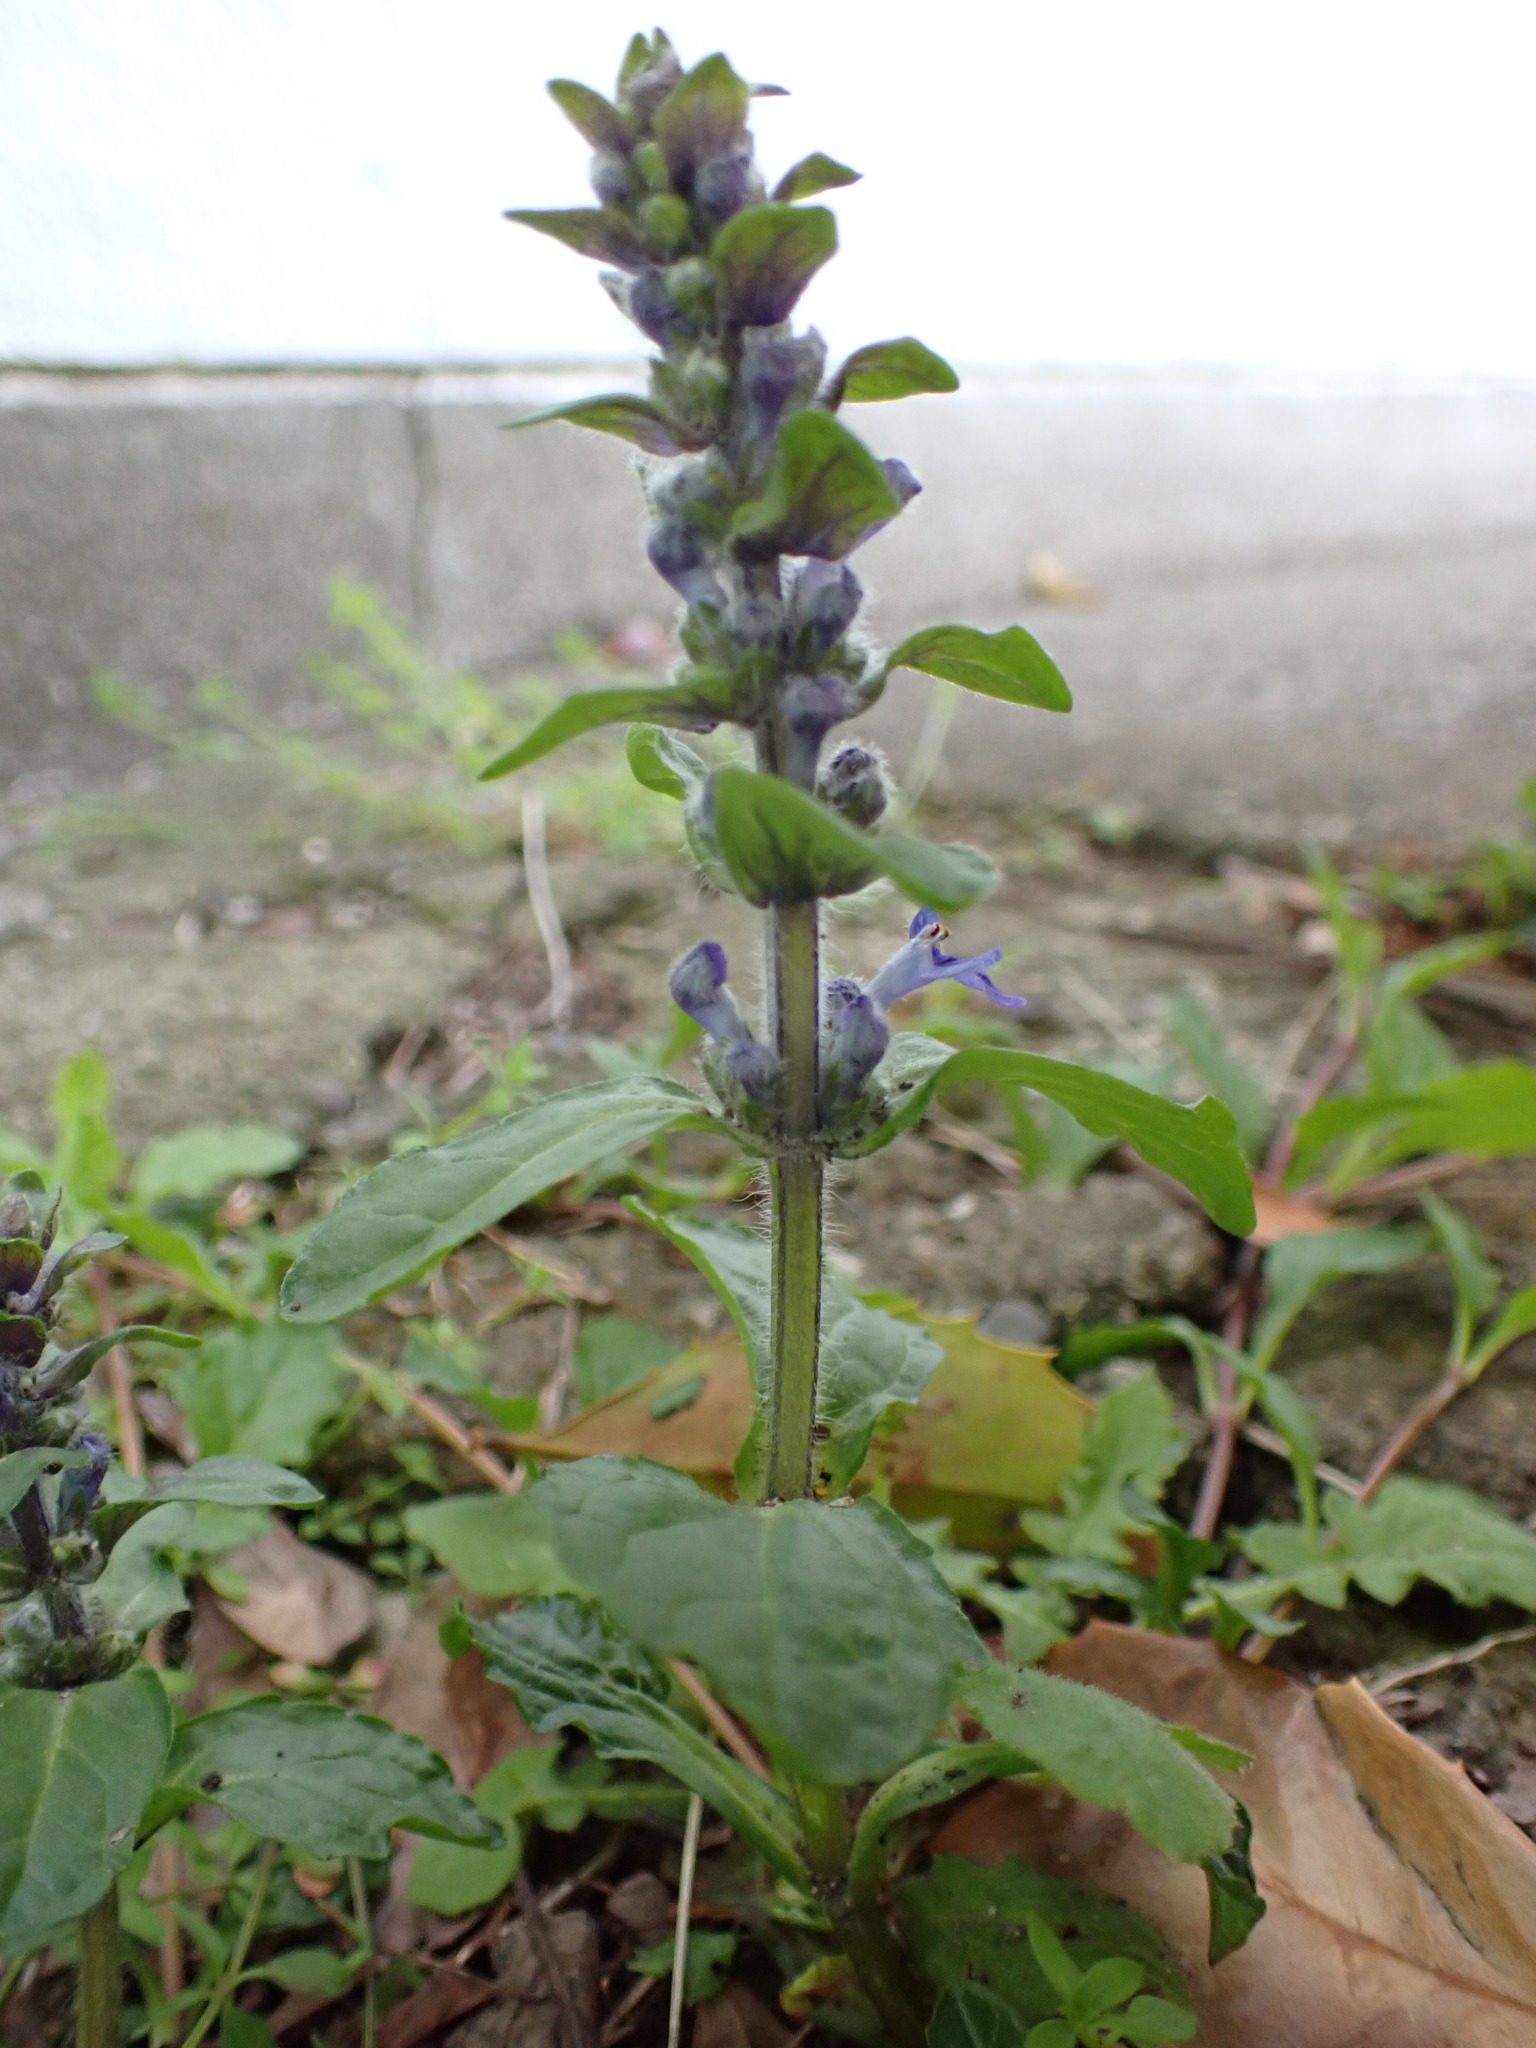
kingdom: Plantae
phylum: Tracheophyta
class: Magnoliopsida
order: Lamiales
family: Lamiaceae
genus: Ajuga
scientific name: Ajuga reptans
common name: Bugle
